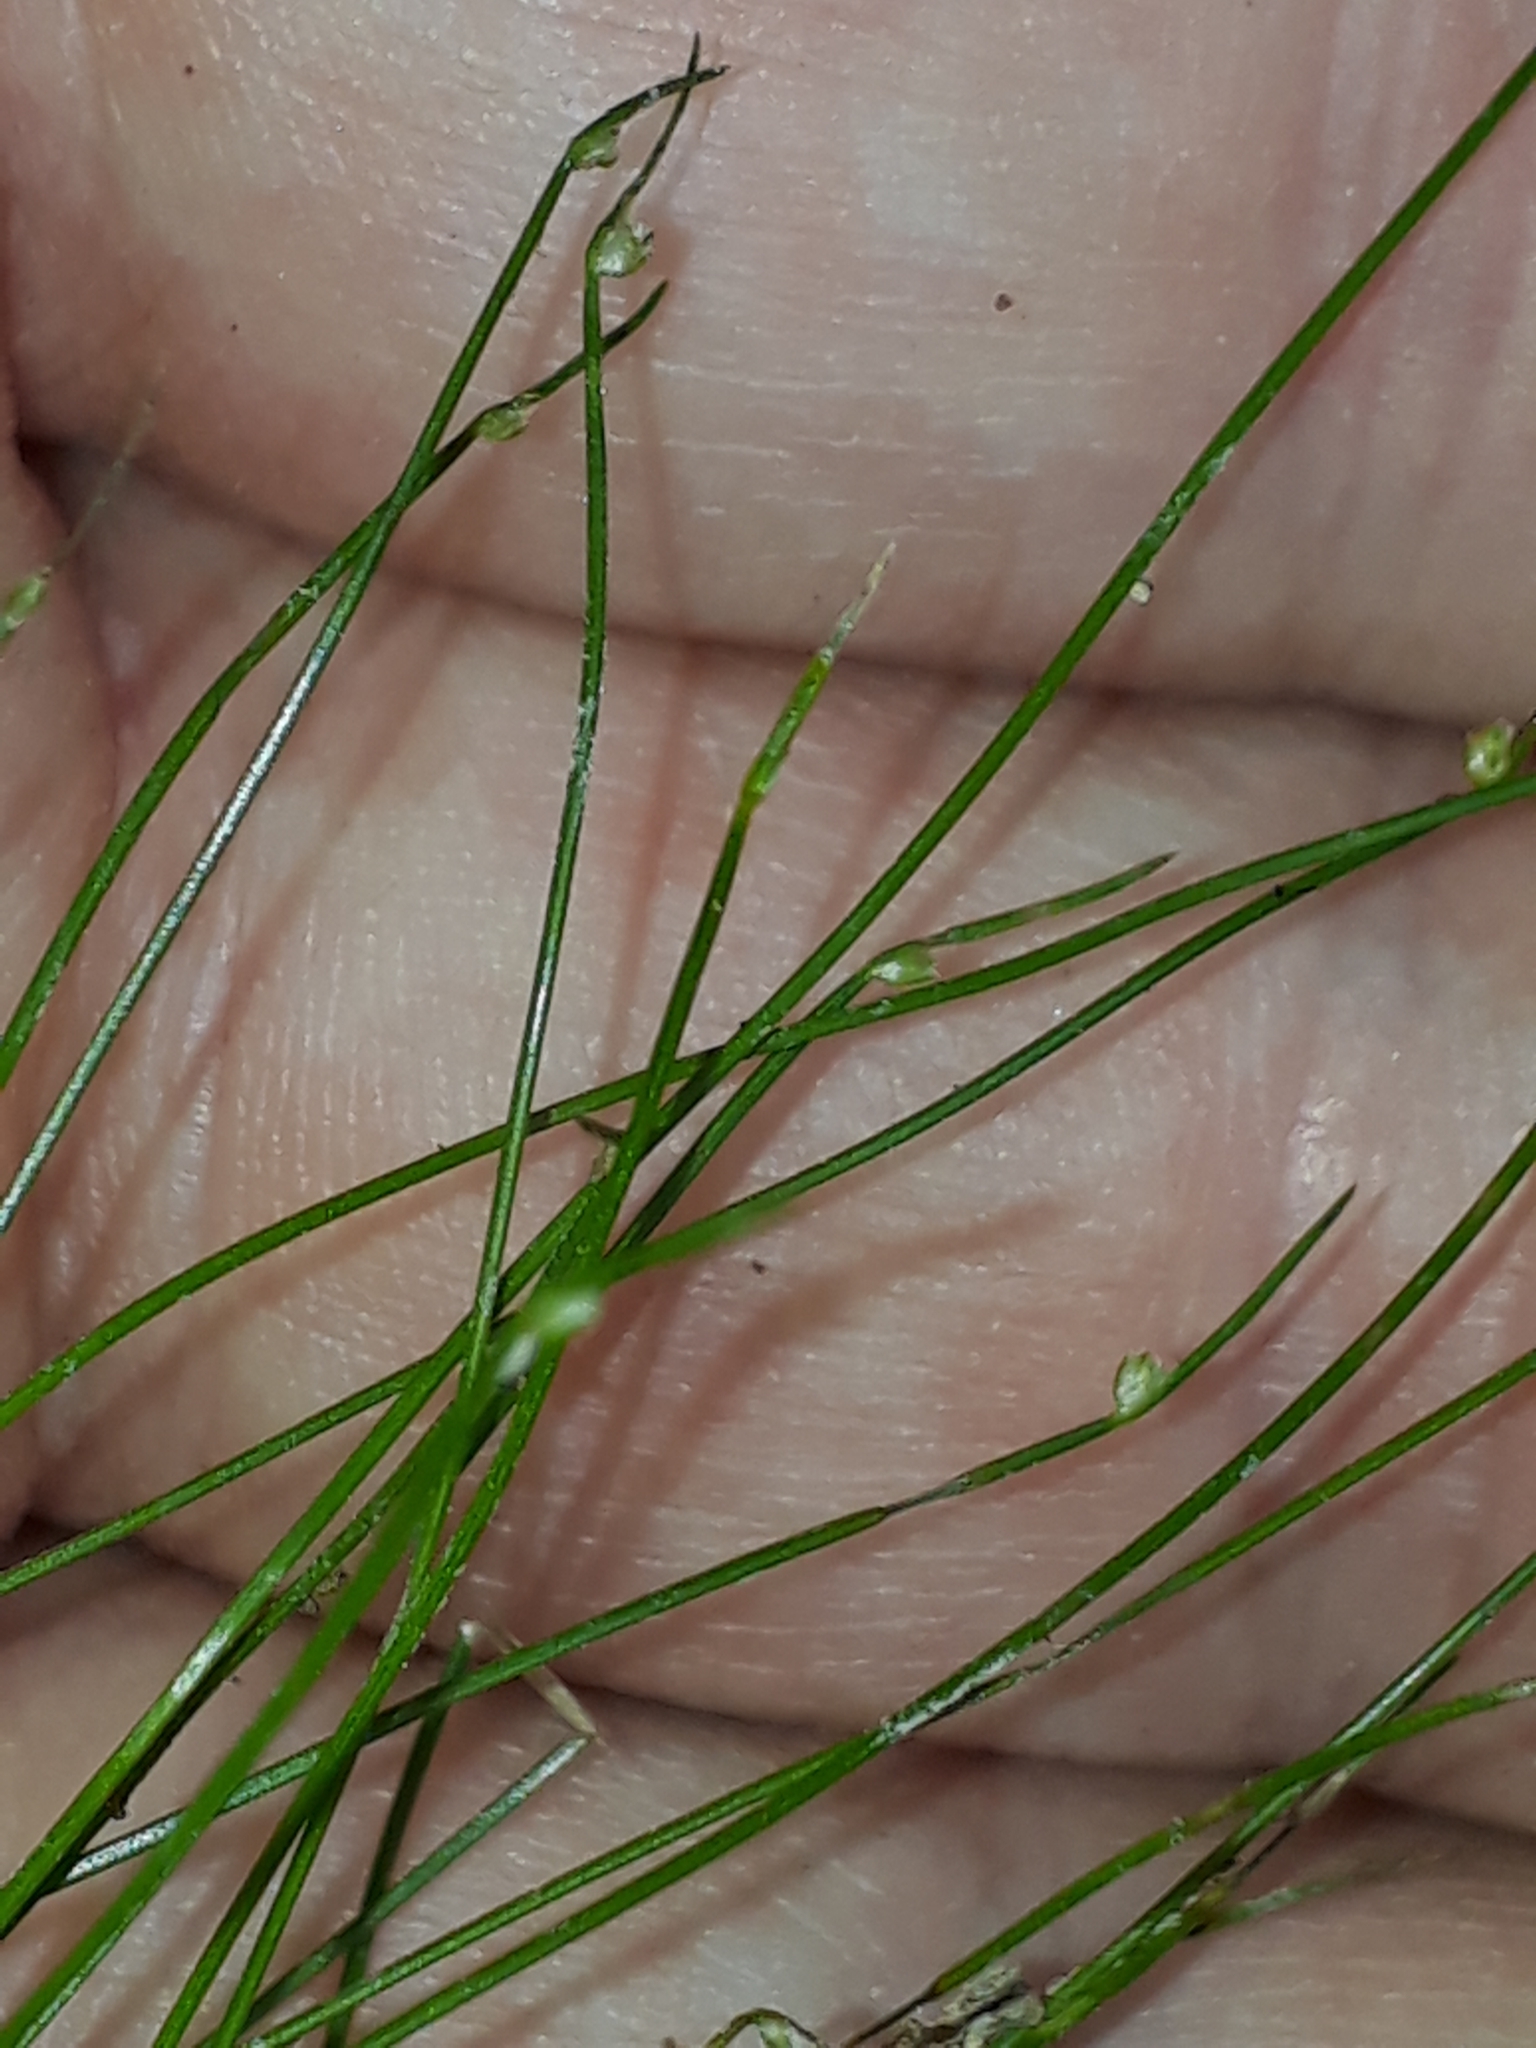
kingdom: Plantae
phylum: Tracheophyta
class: Liliopsida
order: Poales
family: Cyperaceae
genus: Isolepis
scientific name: Isolepis reticularis
